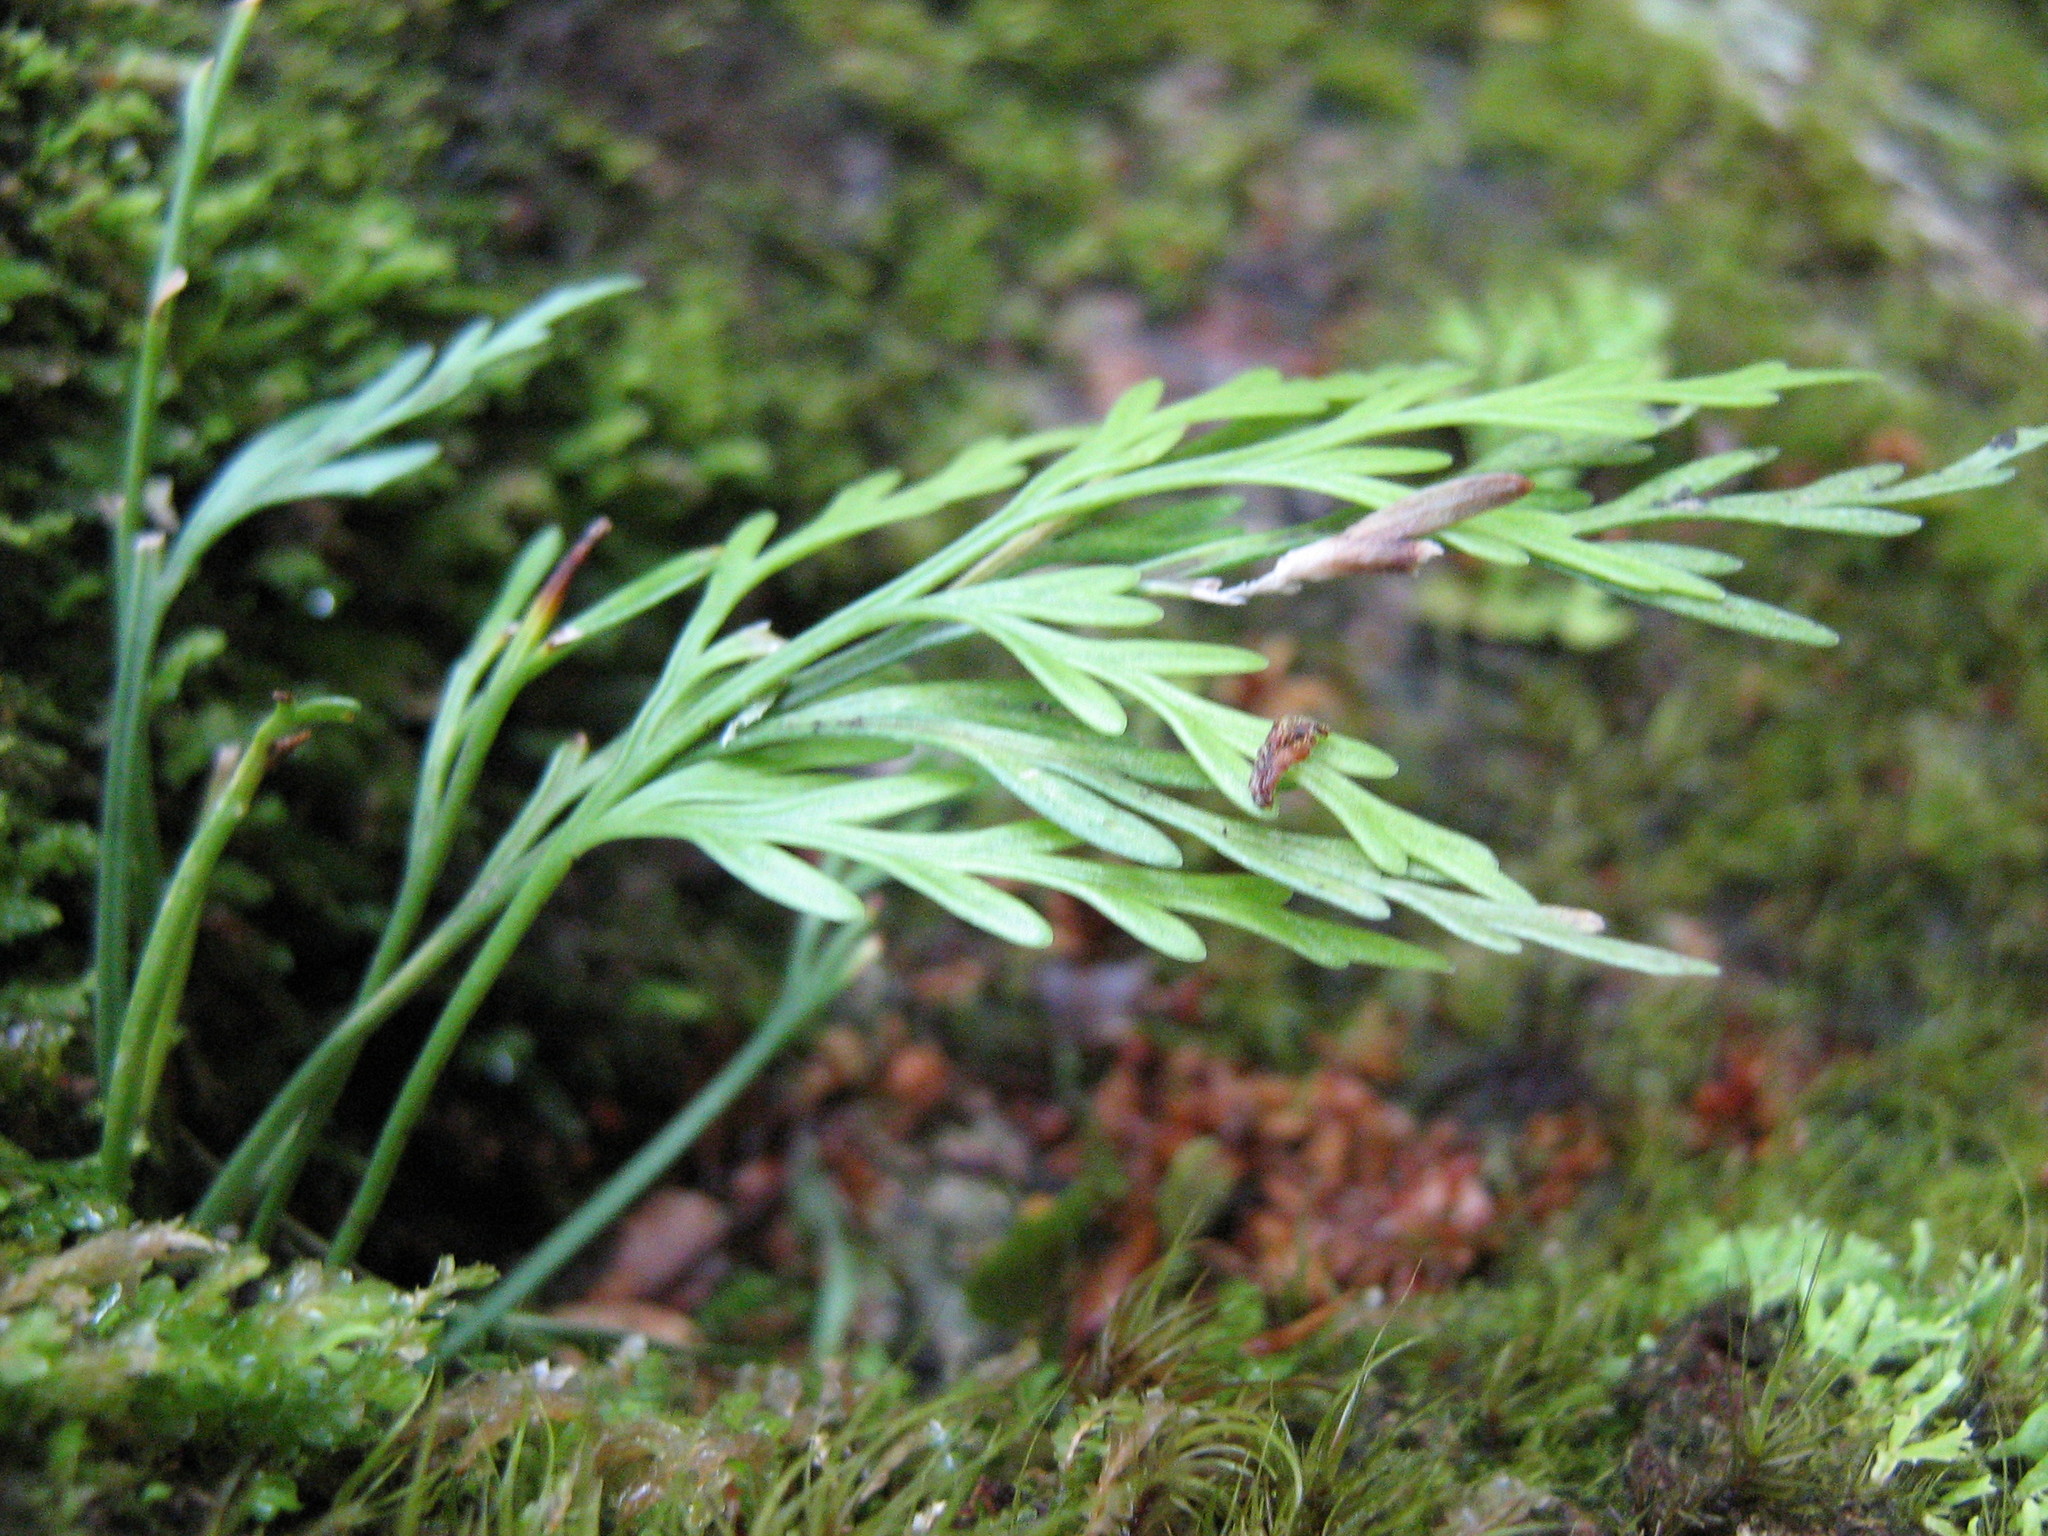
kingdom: Plantae
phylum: Tracheophyta
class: Polypodiopsida
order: Polypodiales
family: Aspleniaceae
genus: Asplenium
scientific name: Asplenium flaccidum
